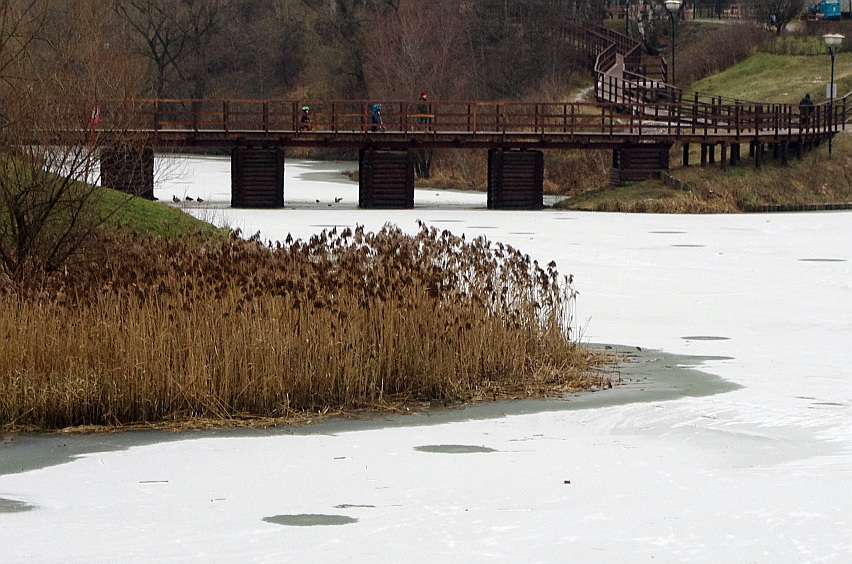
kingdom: Plantae
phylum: Tracheophyta
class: Liliopsida
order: Poales
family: Poaceae
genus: Phragmites
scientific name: Phragmites australis
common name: Common reed
